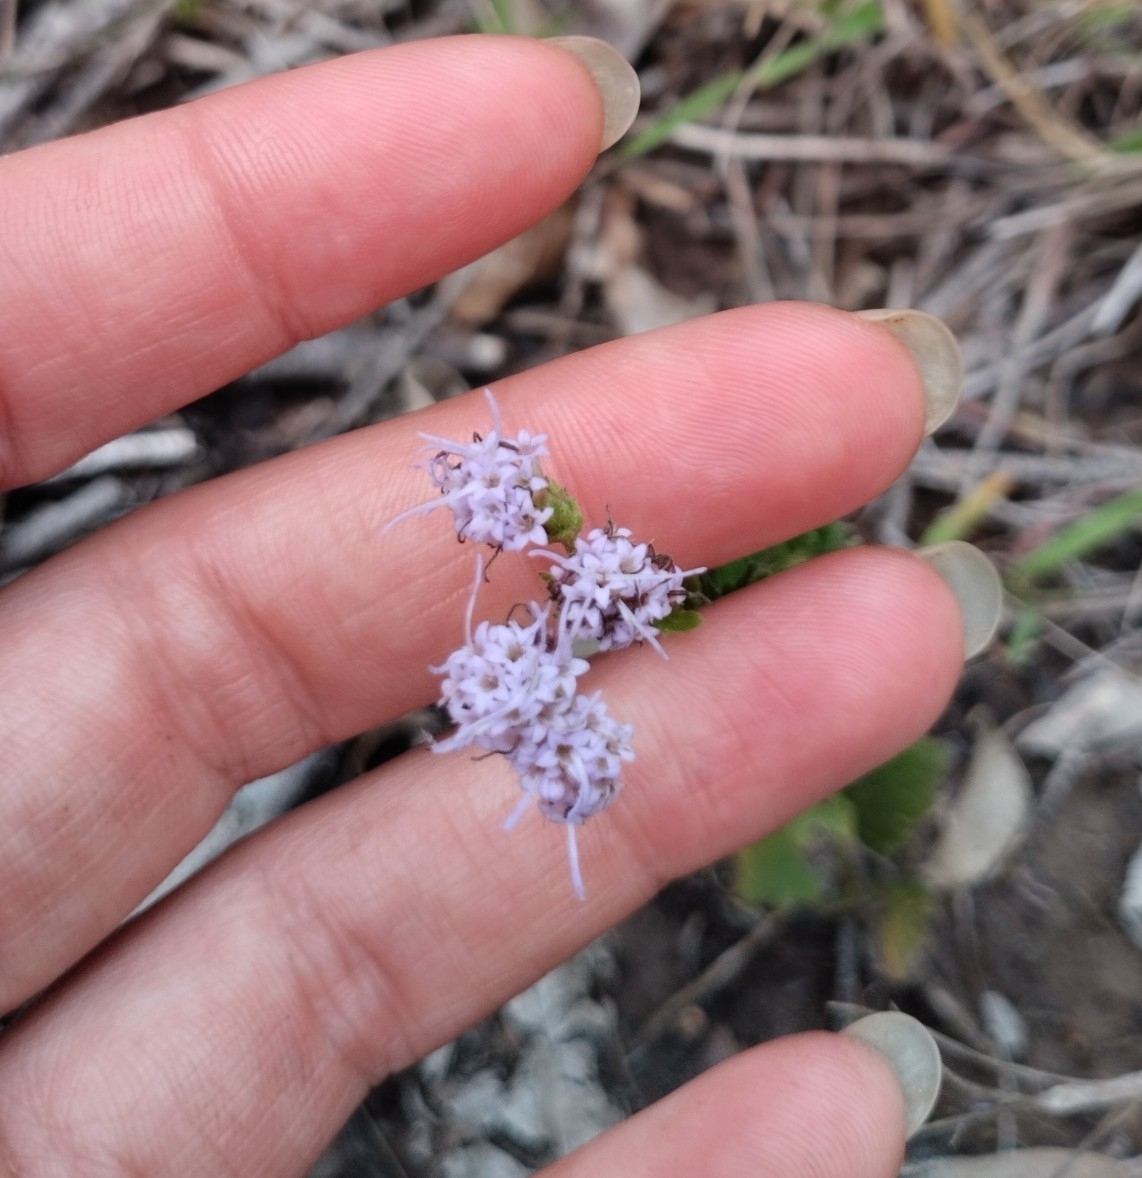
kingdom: Plantae
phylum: Tracheophyta
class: Magnoliopsida
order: Asterales
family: Asteraceae
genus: Chromolaena
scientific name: Chromolaena hirsuta
